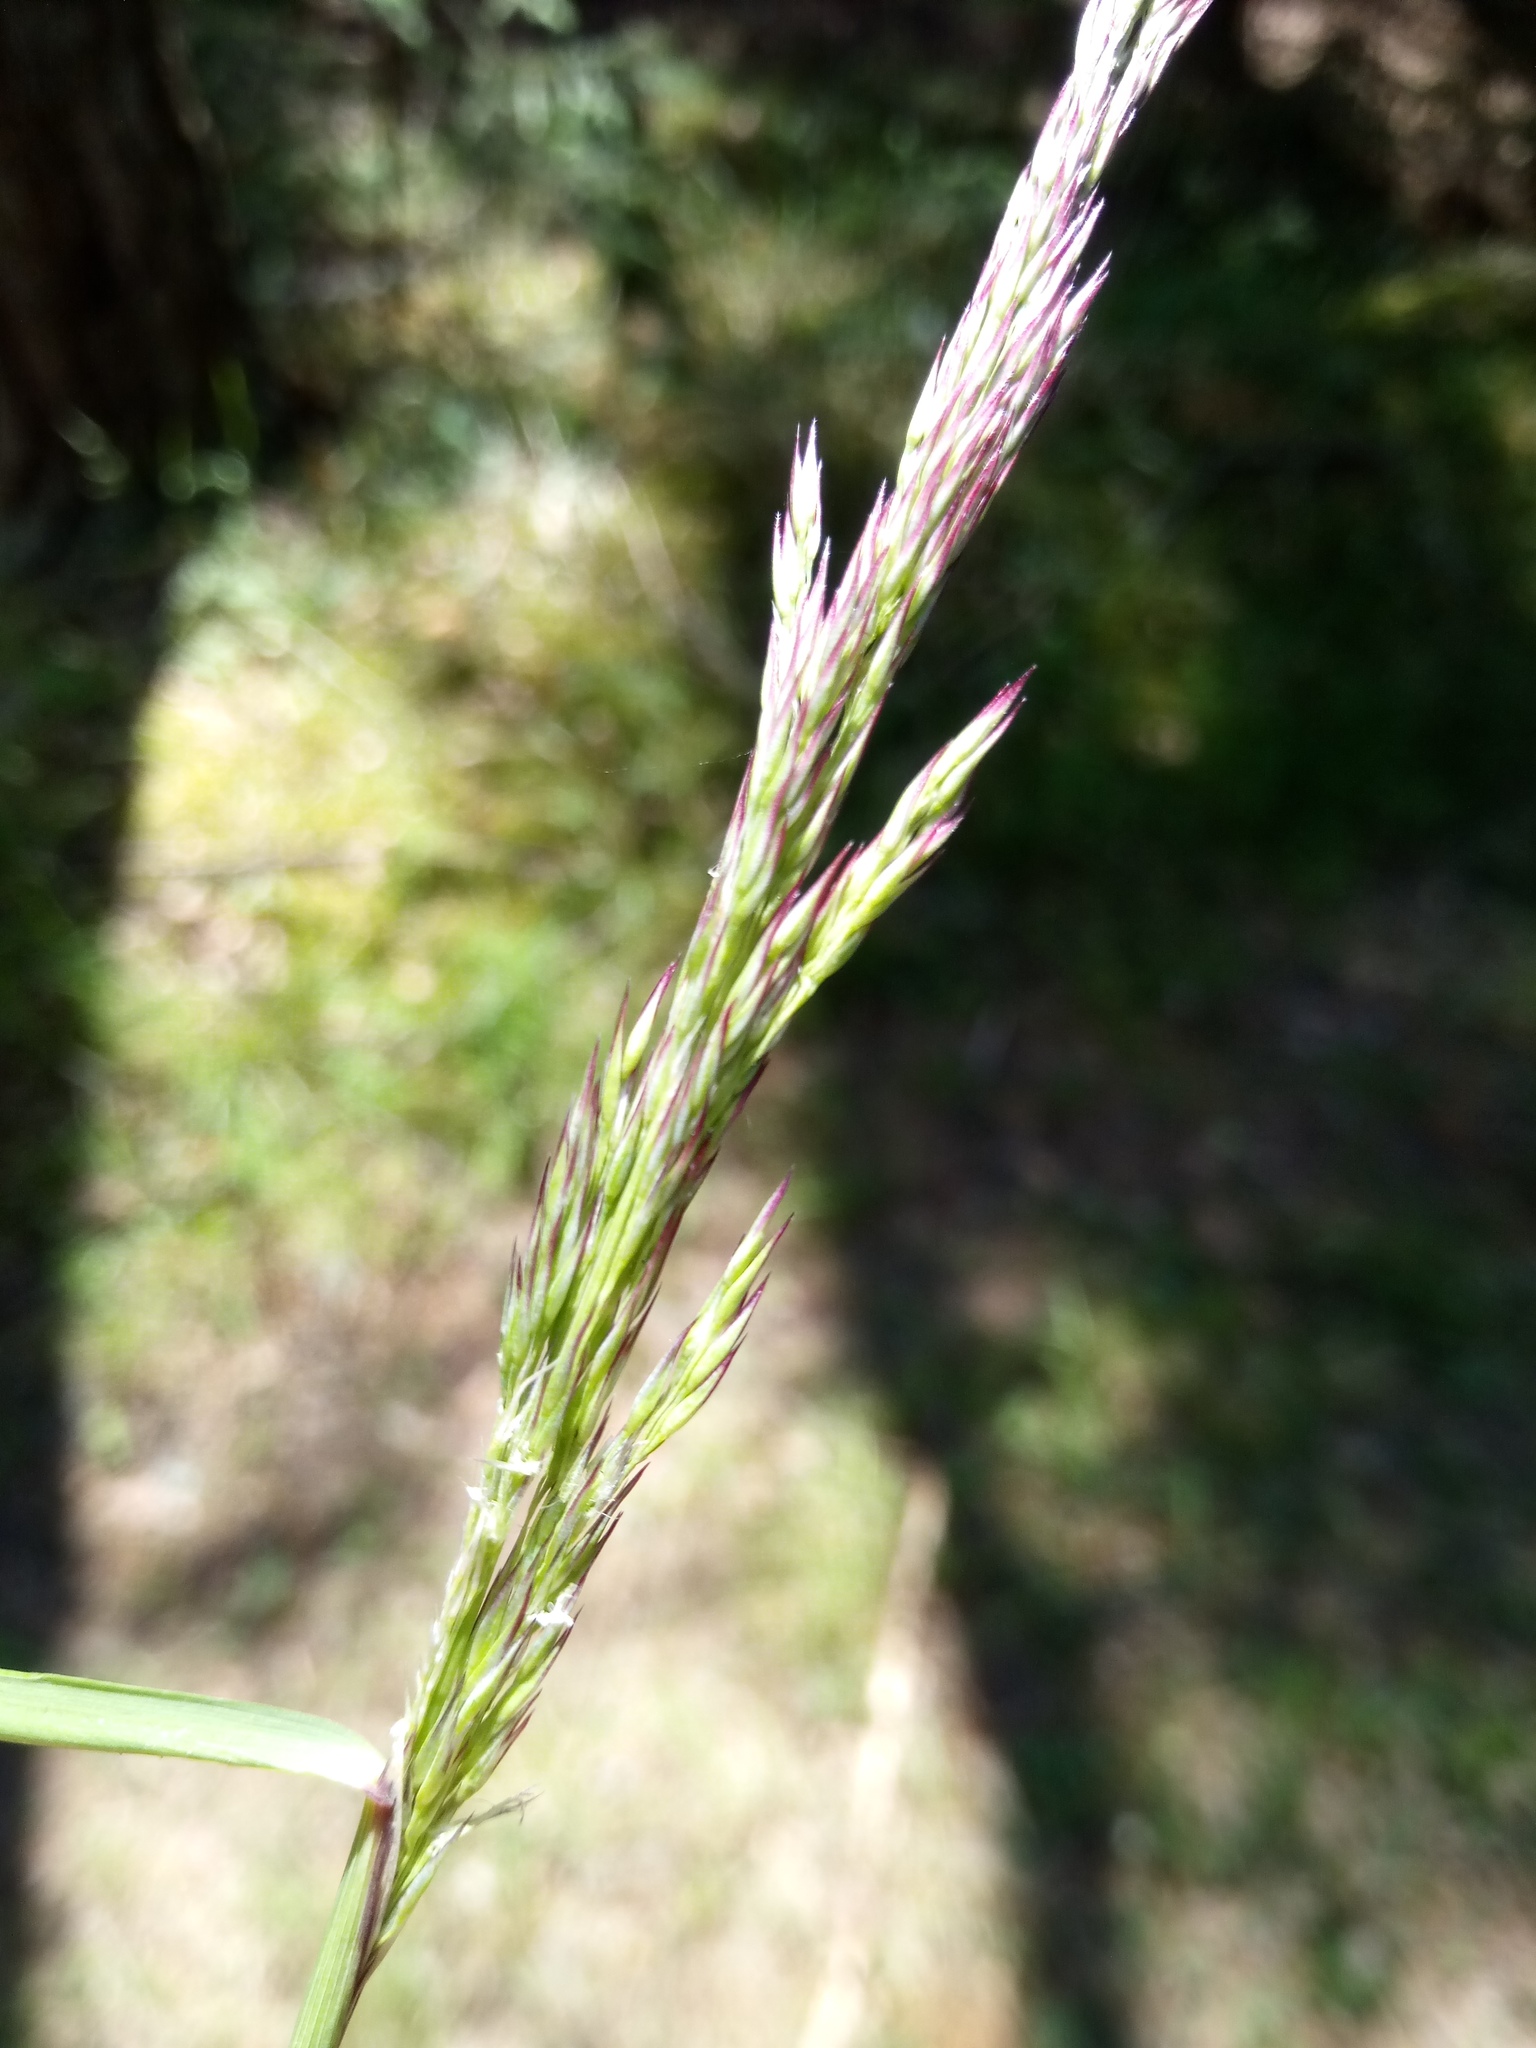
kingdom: Plantae
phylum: Tracheophyta
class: Liliopsida
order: Poales
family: Poaceae
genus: Calamagrostis
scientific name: Calamagrostis villosa
